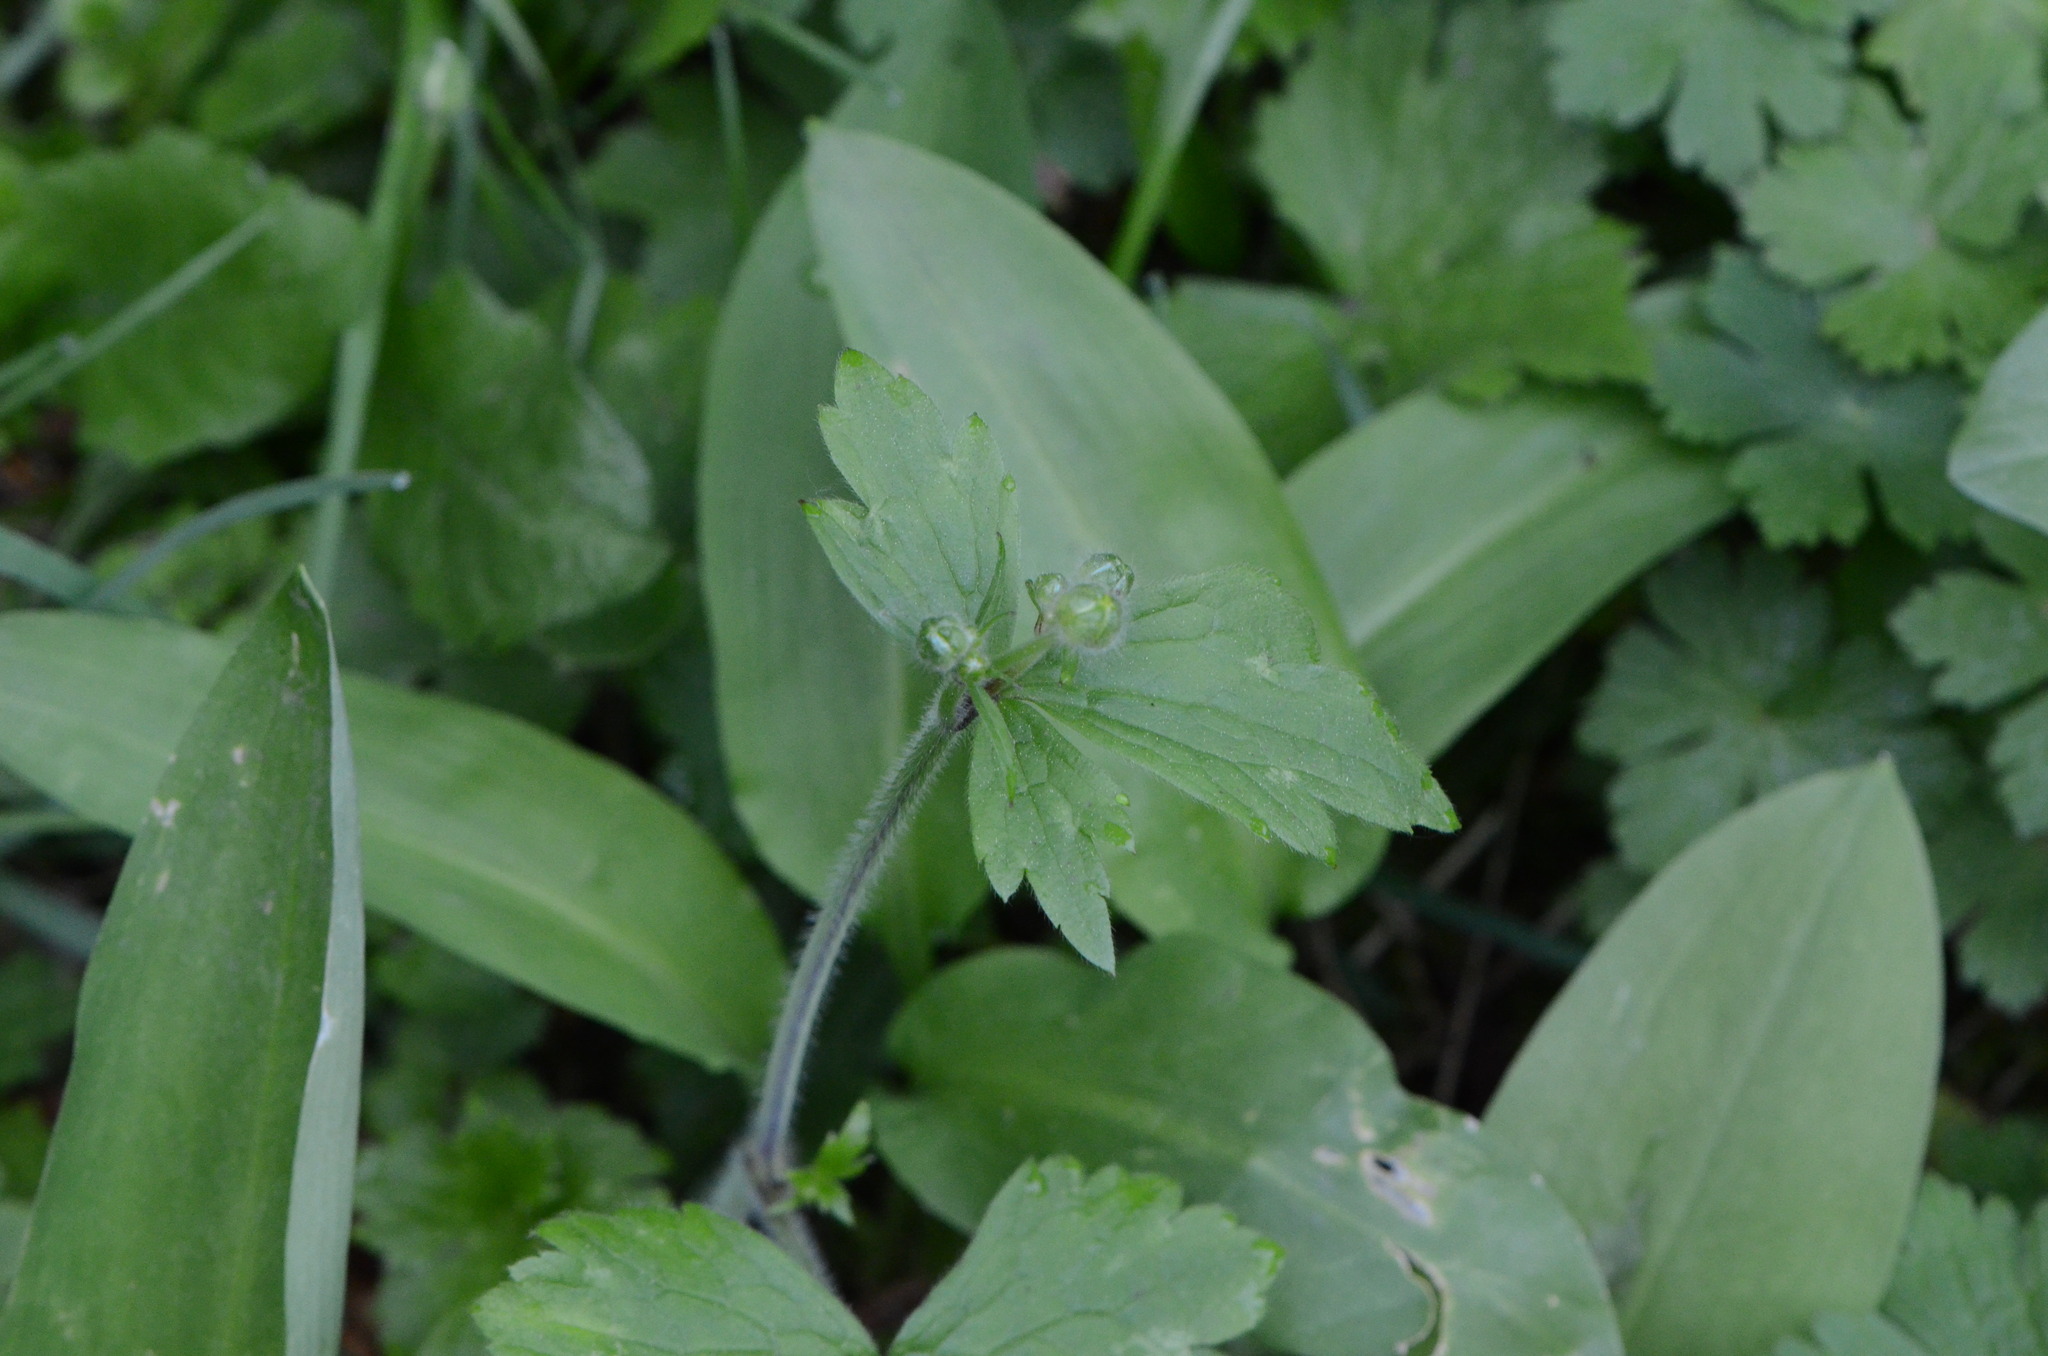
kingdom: Plantae
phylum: Tracheophyta
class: Magnoliopsida
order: Ranunculales
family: Ranunculaceae
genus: Ranunculus
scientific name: Ranunculus lanuginosus
